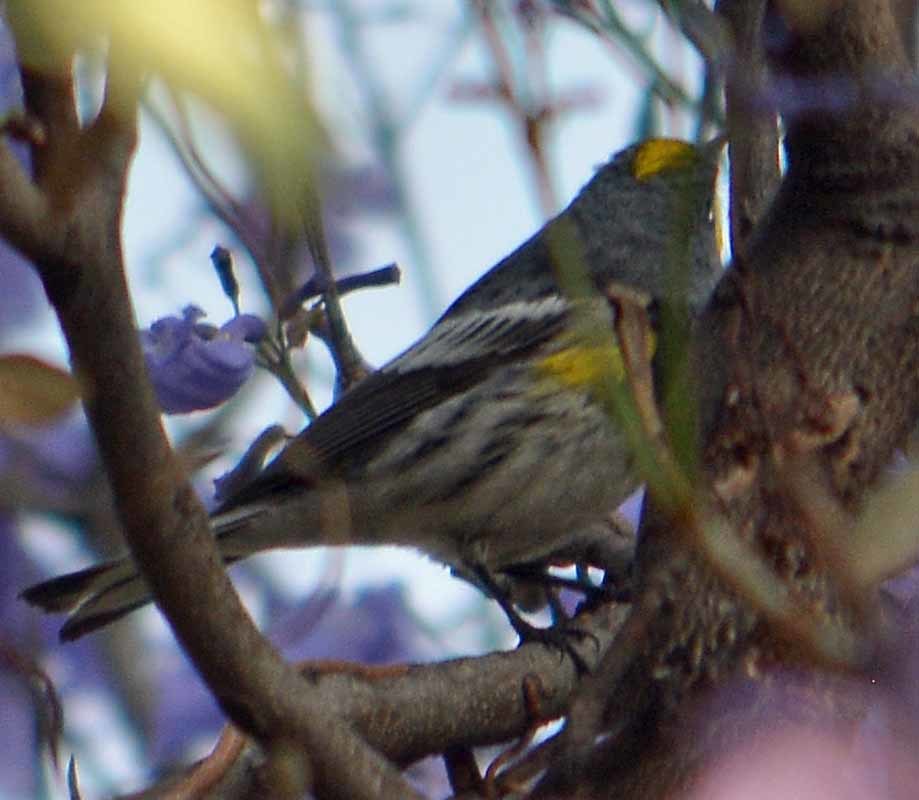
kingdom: Animalia
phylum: Chordata
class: Aves
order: Passeriformes
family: Parulidae
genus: Setophaga
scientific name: Setophaga auduboni
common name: Audubon's warbler
